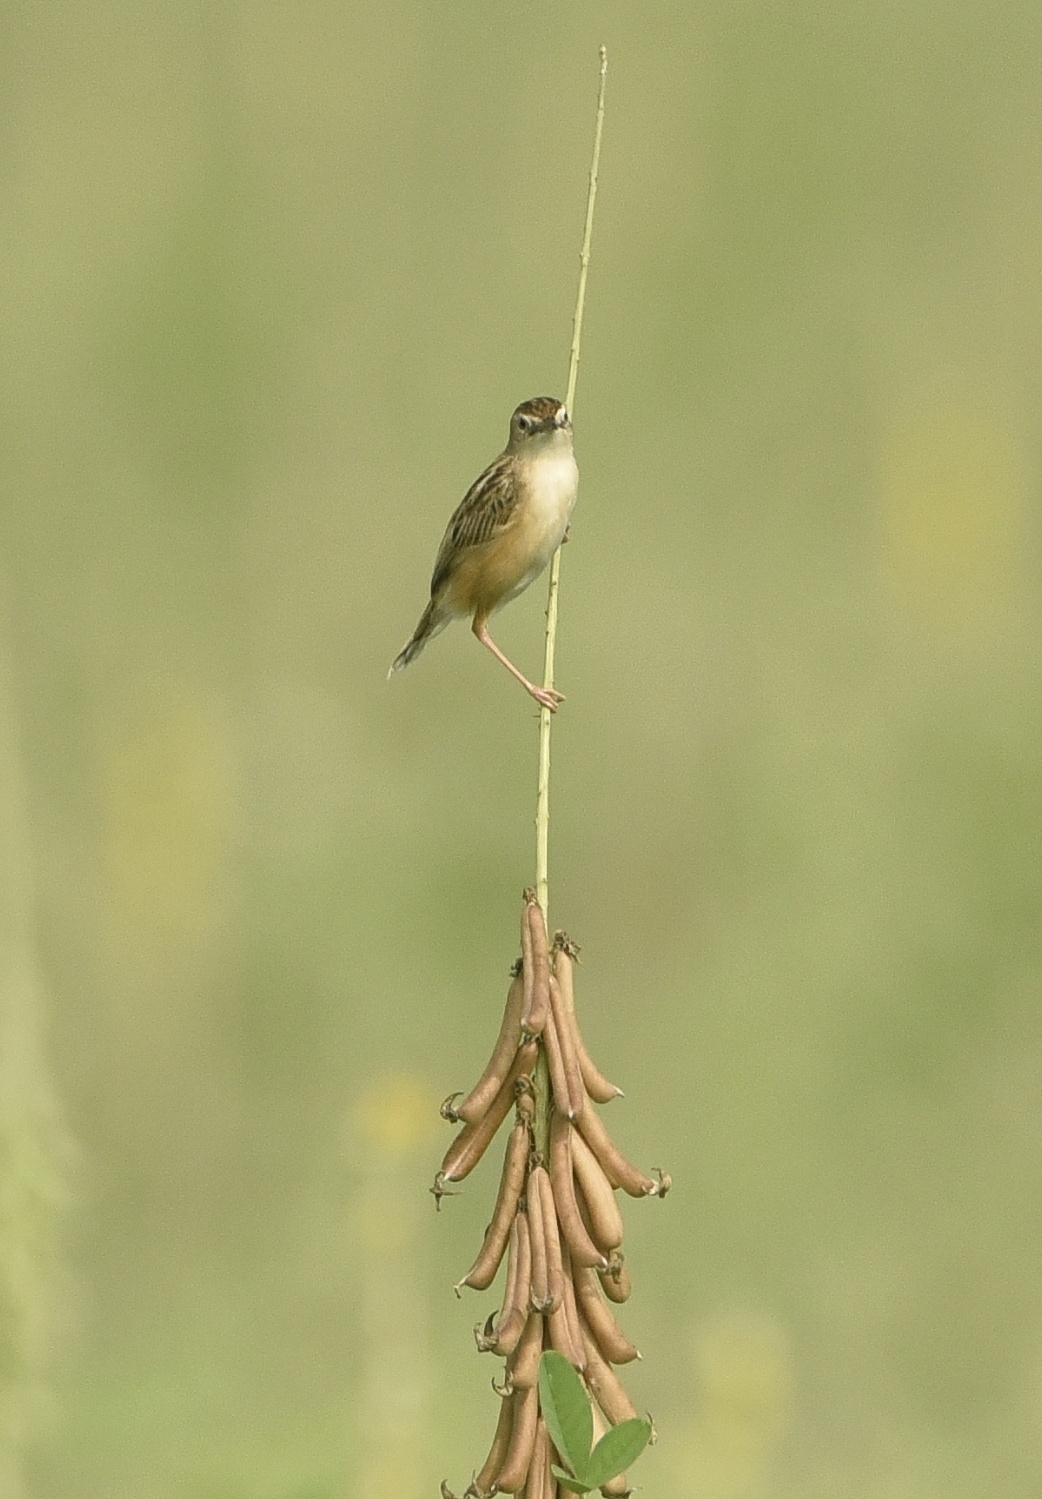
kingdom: Animalia
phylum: Chordata
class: Aves
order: Passeriformes
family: Cisticolidae
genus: Cisticola
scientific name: Cisticola juncidis
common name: Zitting cisticola
